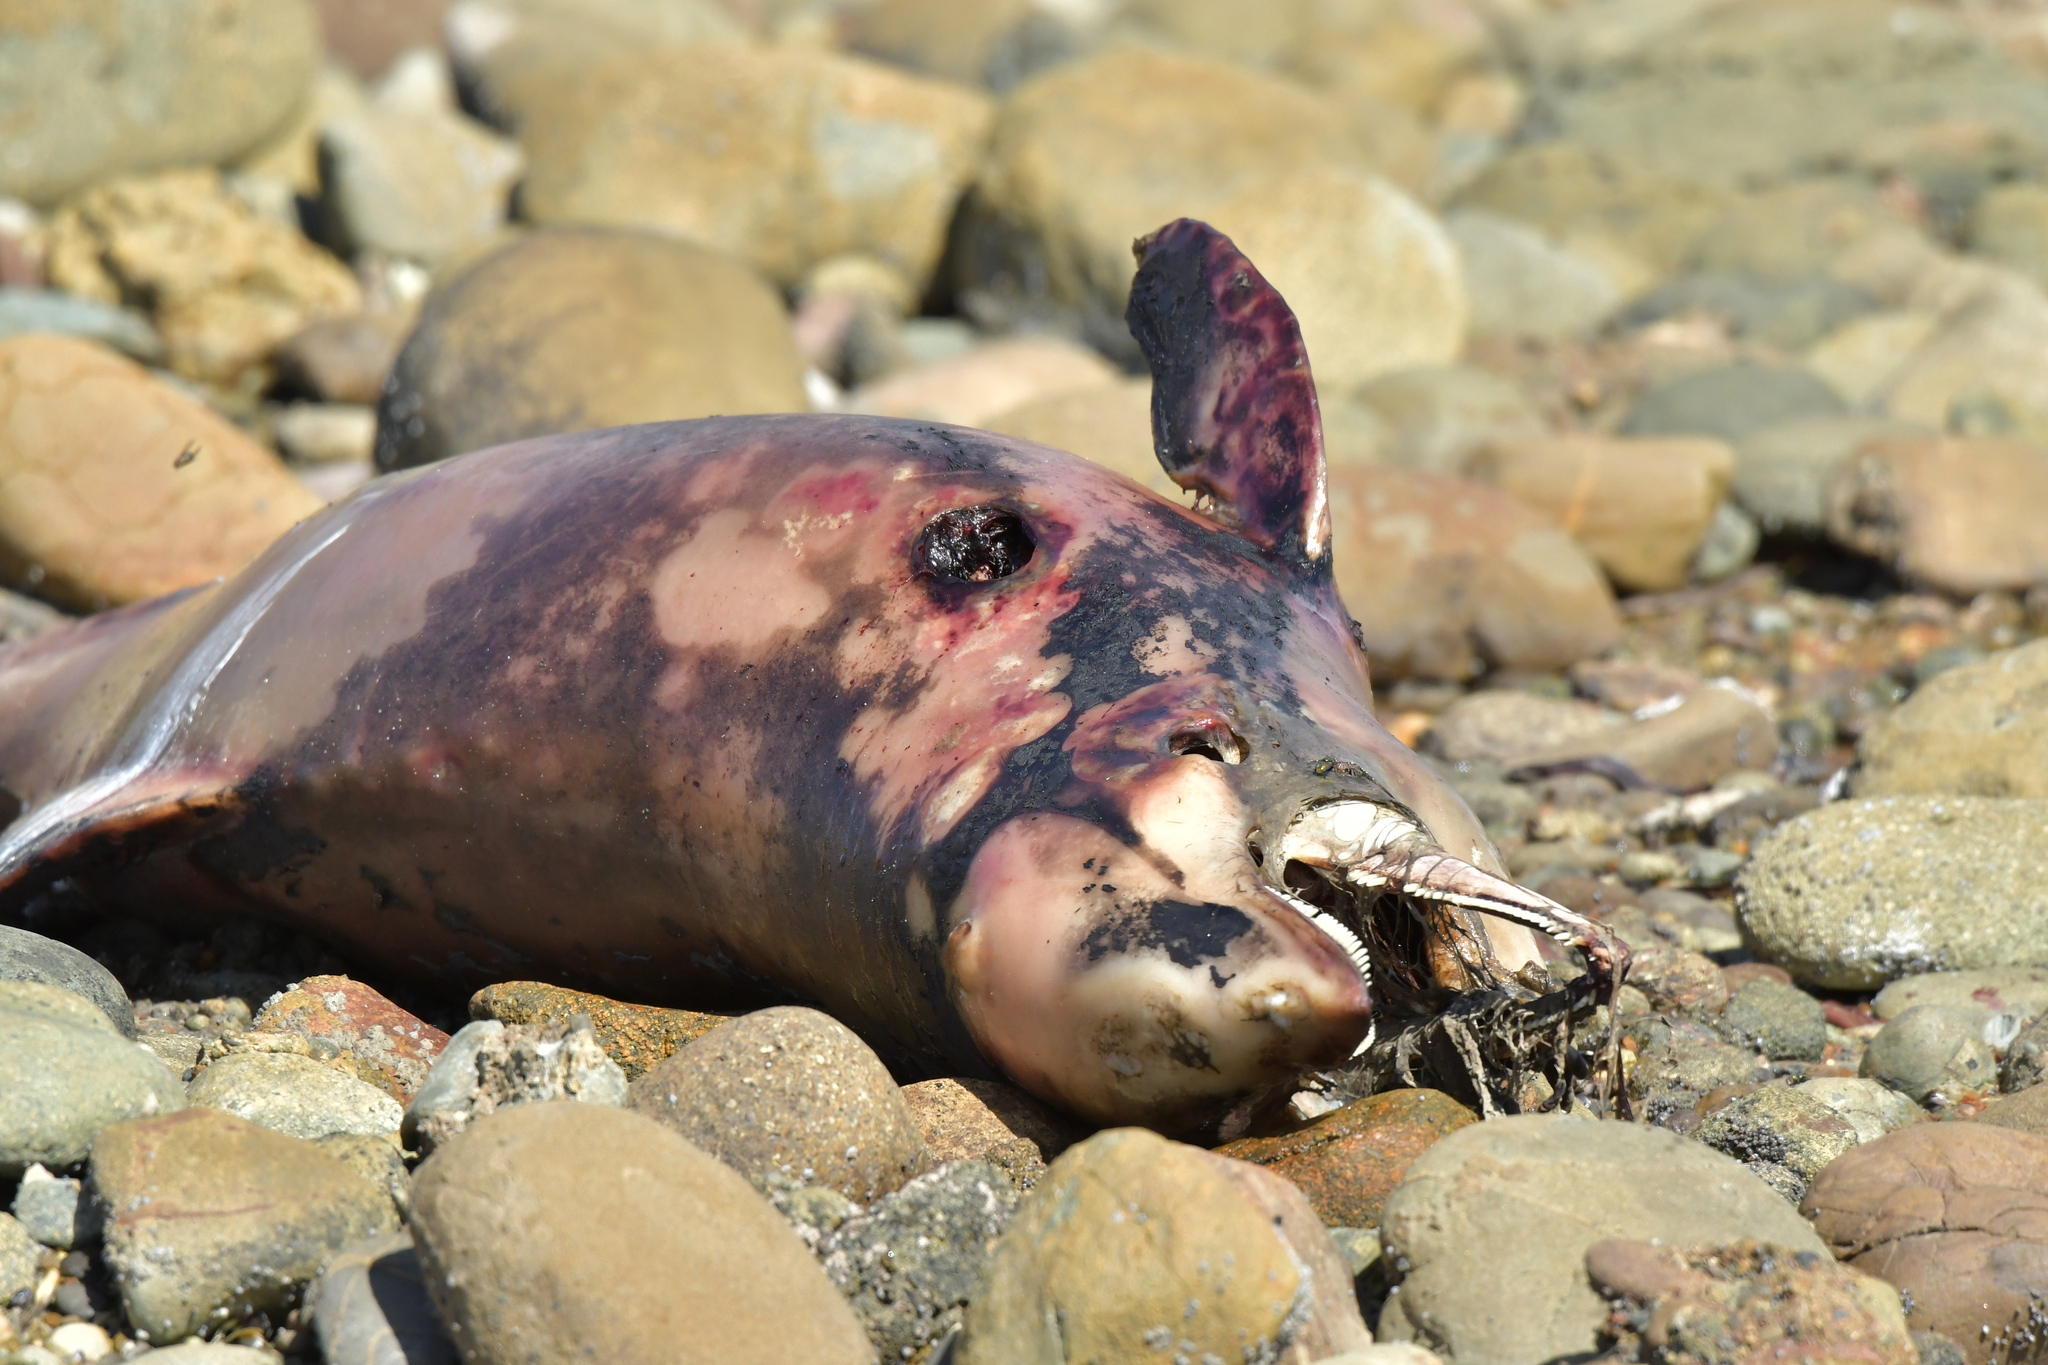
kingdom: Animalia
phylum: Chordata
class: Mammalia
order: Cetacea
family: Delphinidae
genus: Cephalorhynchus
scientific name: Cephalorhynchus hectori
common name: Hector's dolphin
